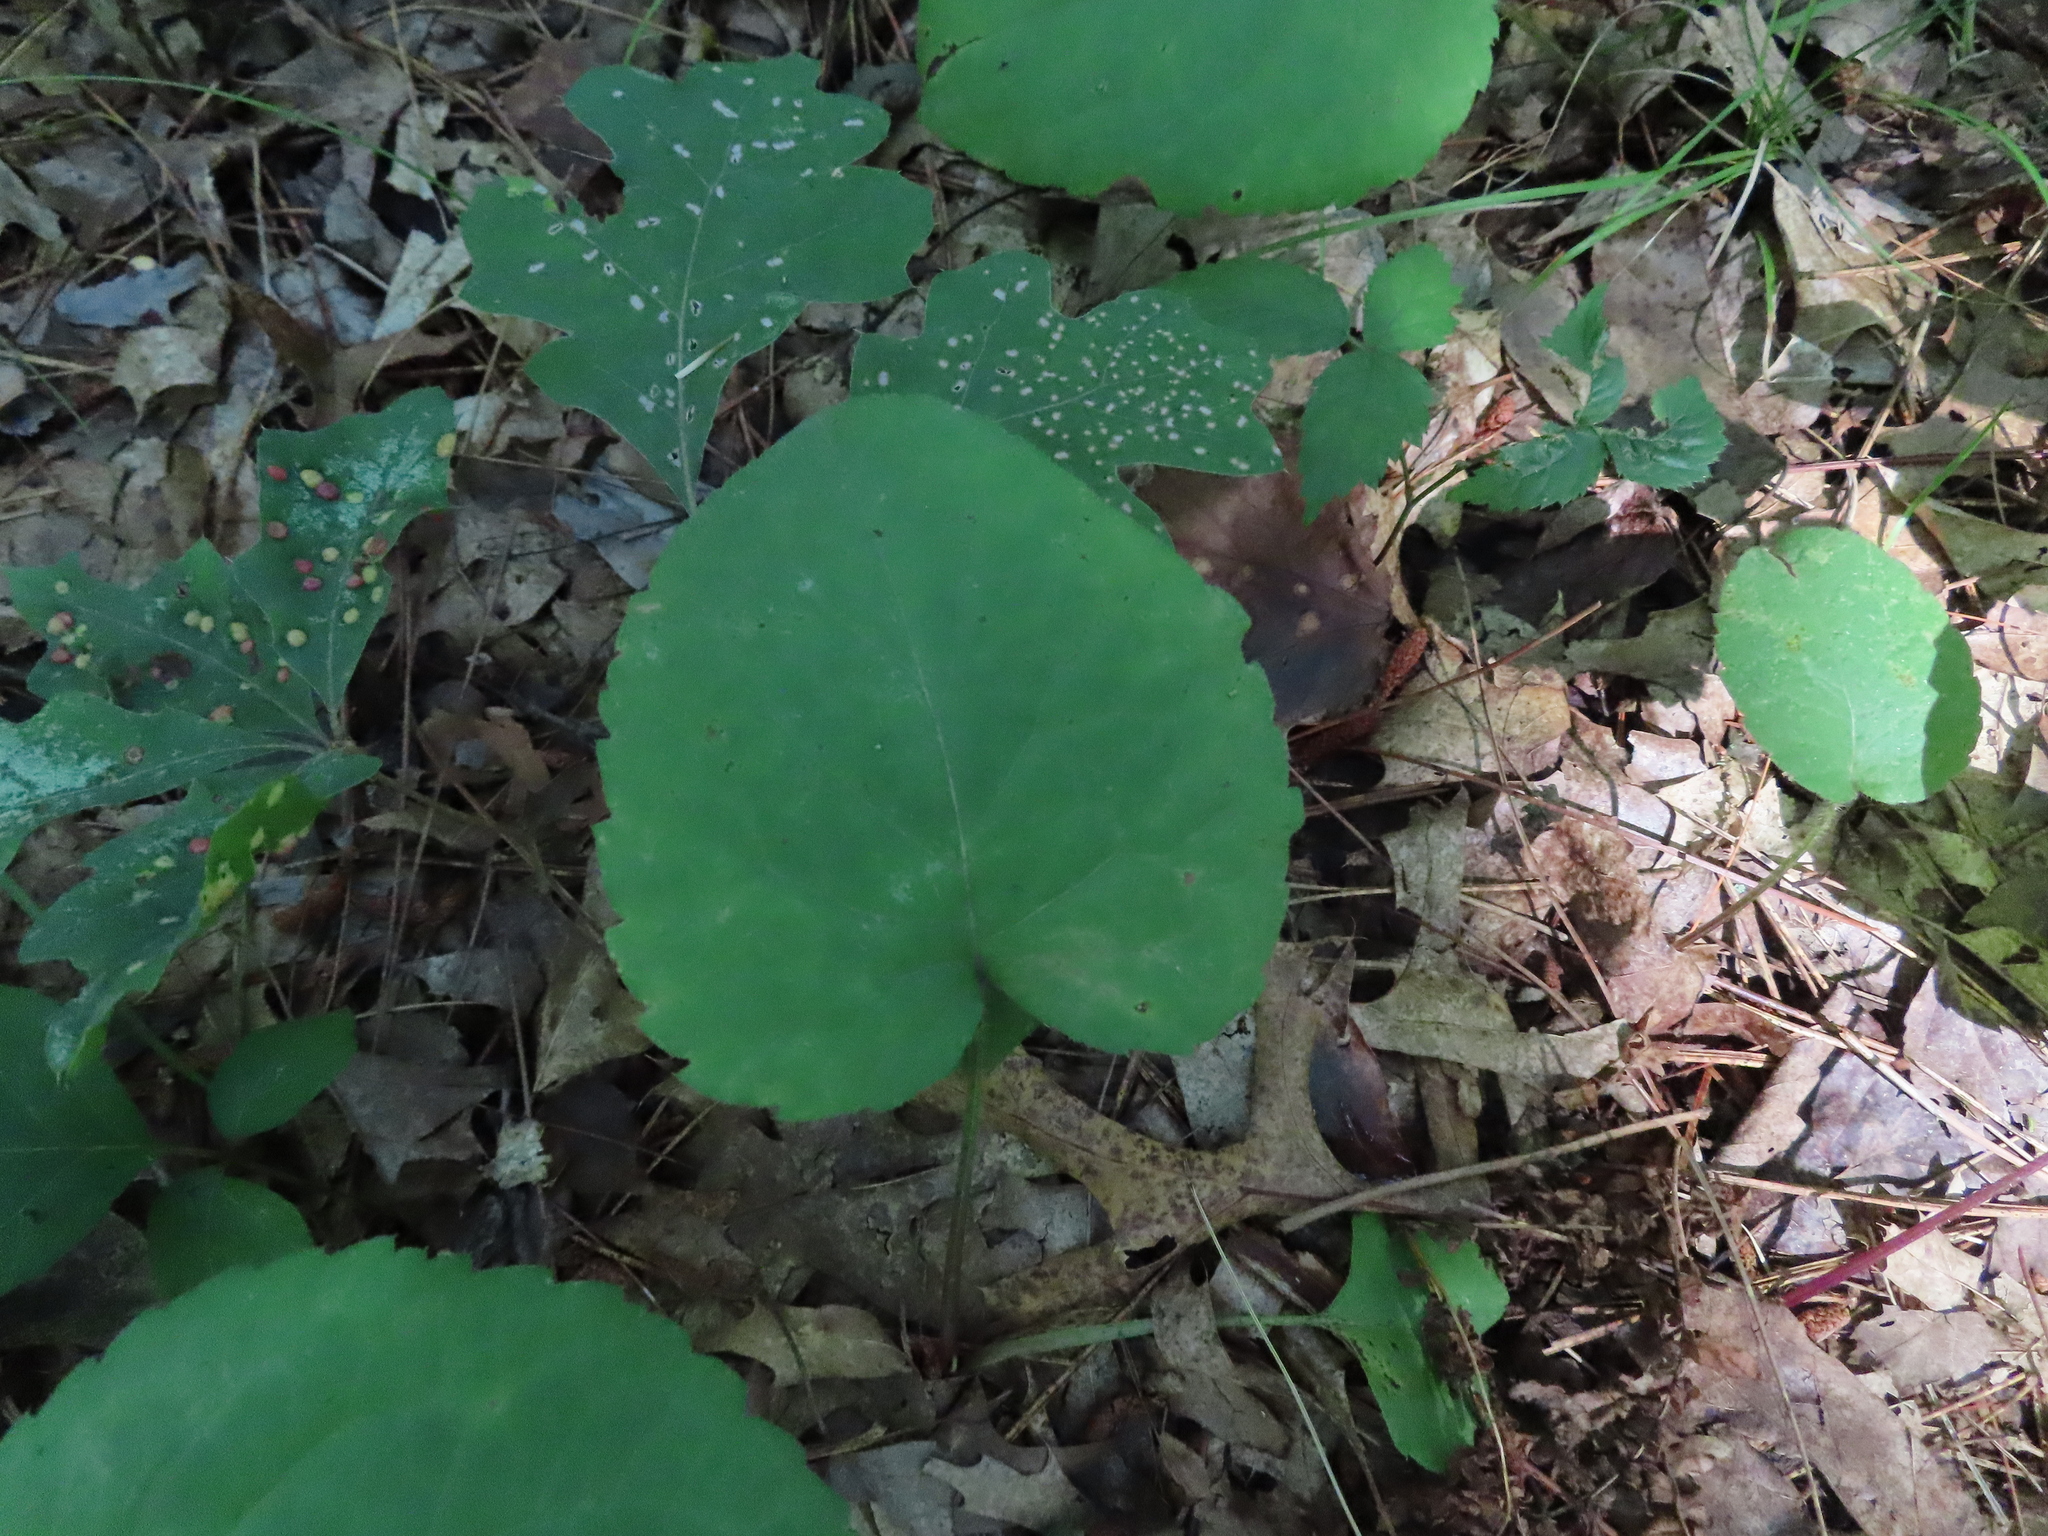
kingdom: Plantae
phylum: Tracheophyta
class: Magnoliopsida
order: Asterales
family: Asteraceae
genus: Eurybia
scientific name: Eurybia macrophylla
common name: Big-leaved aster
